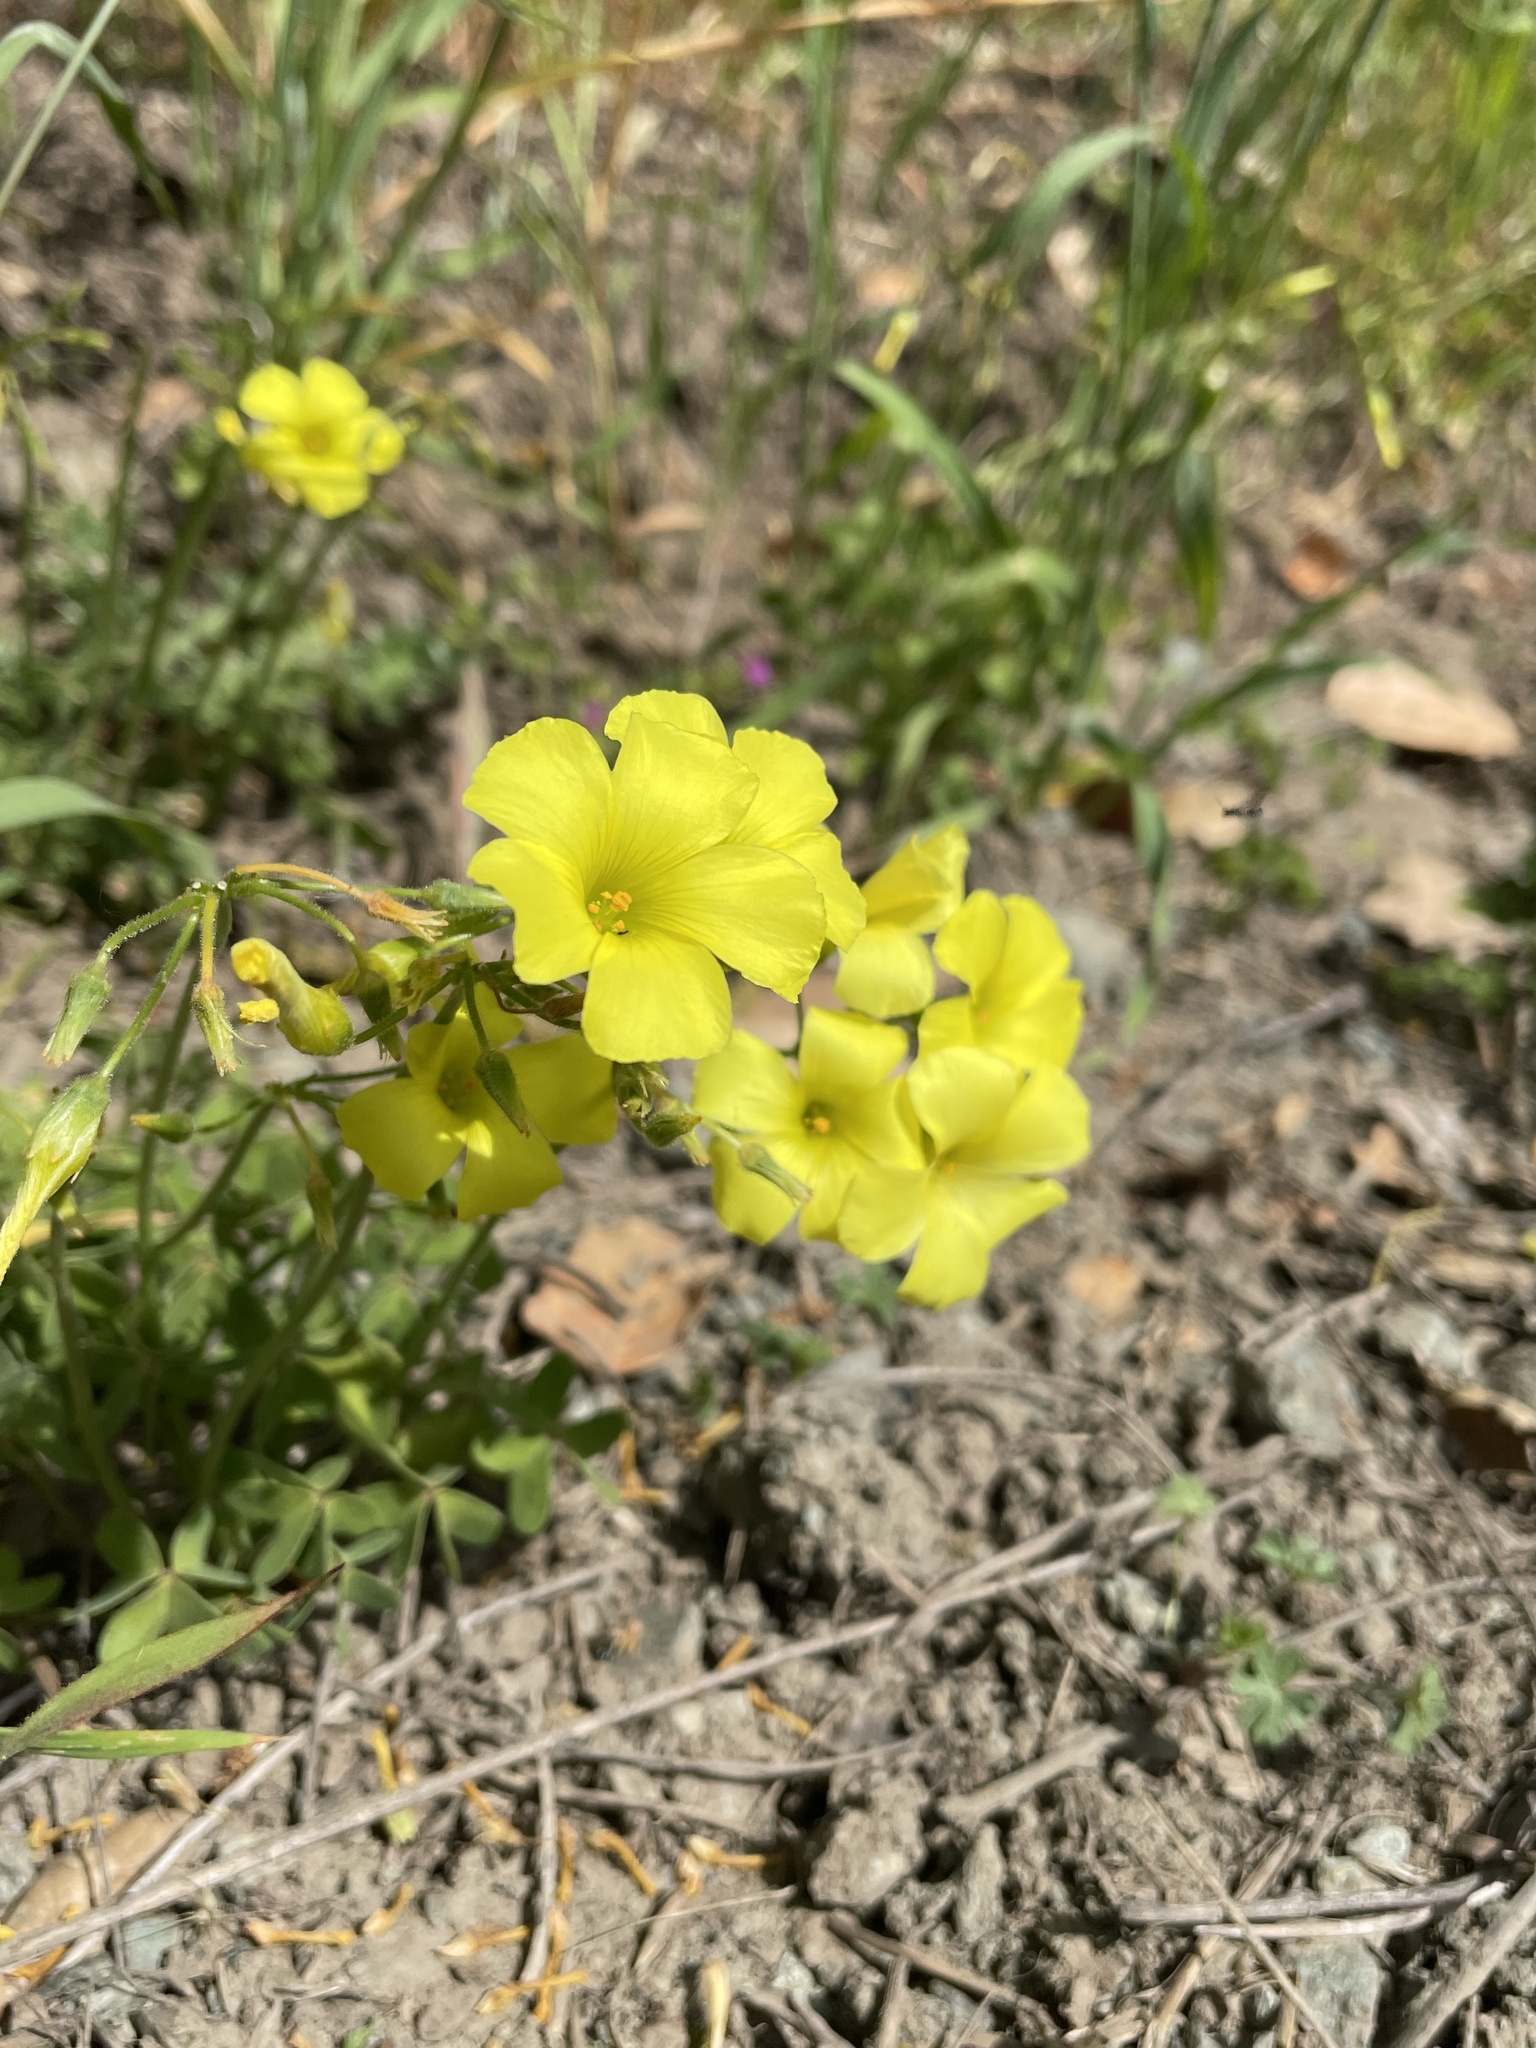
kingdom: Plantae
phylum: Tracheophyta
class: Magnoliopsida
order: Oxalidales
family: Oxalidaceae
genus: Oxalis
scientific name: Oxalis pes-caprae
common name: Bermuda-buttercup
